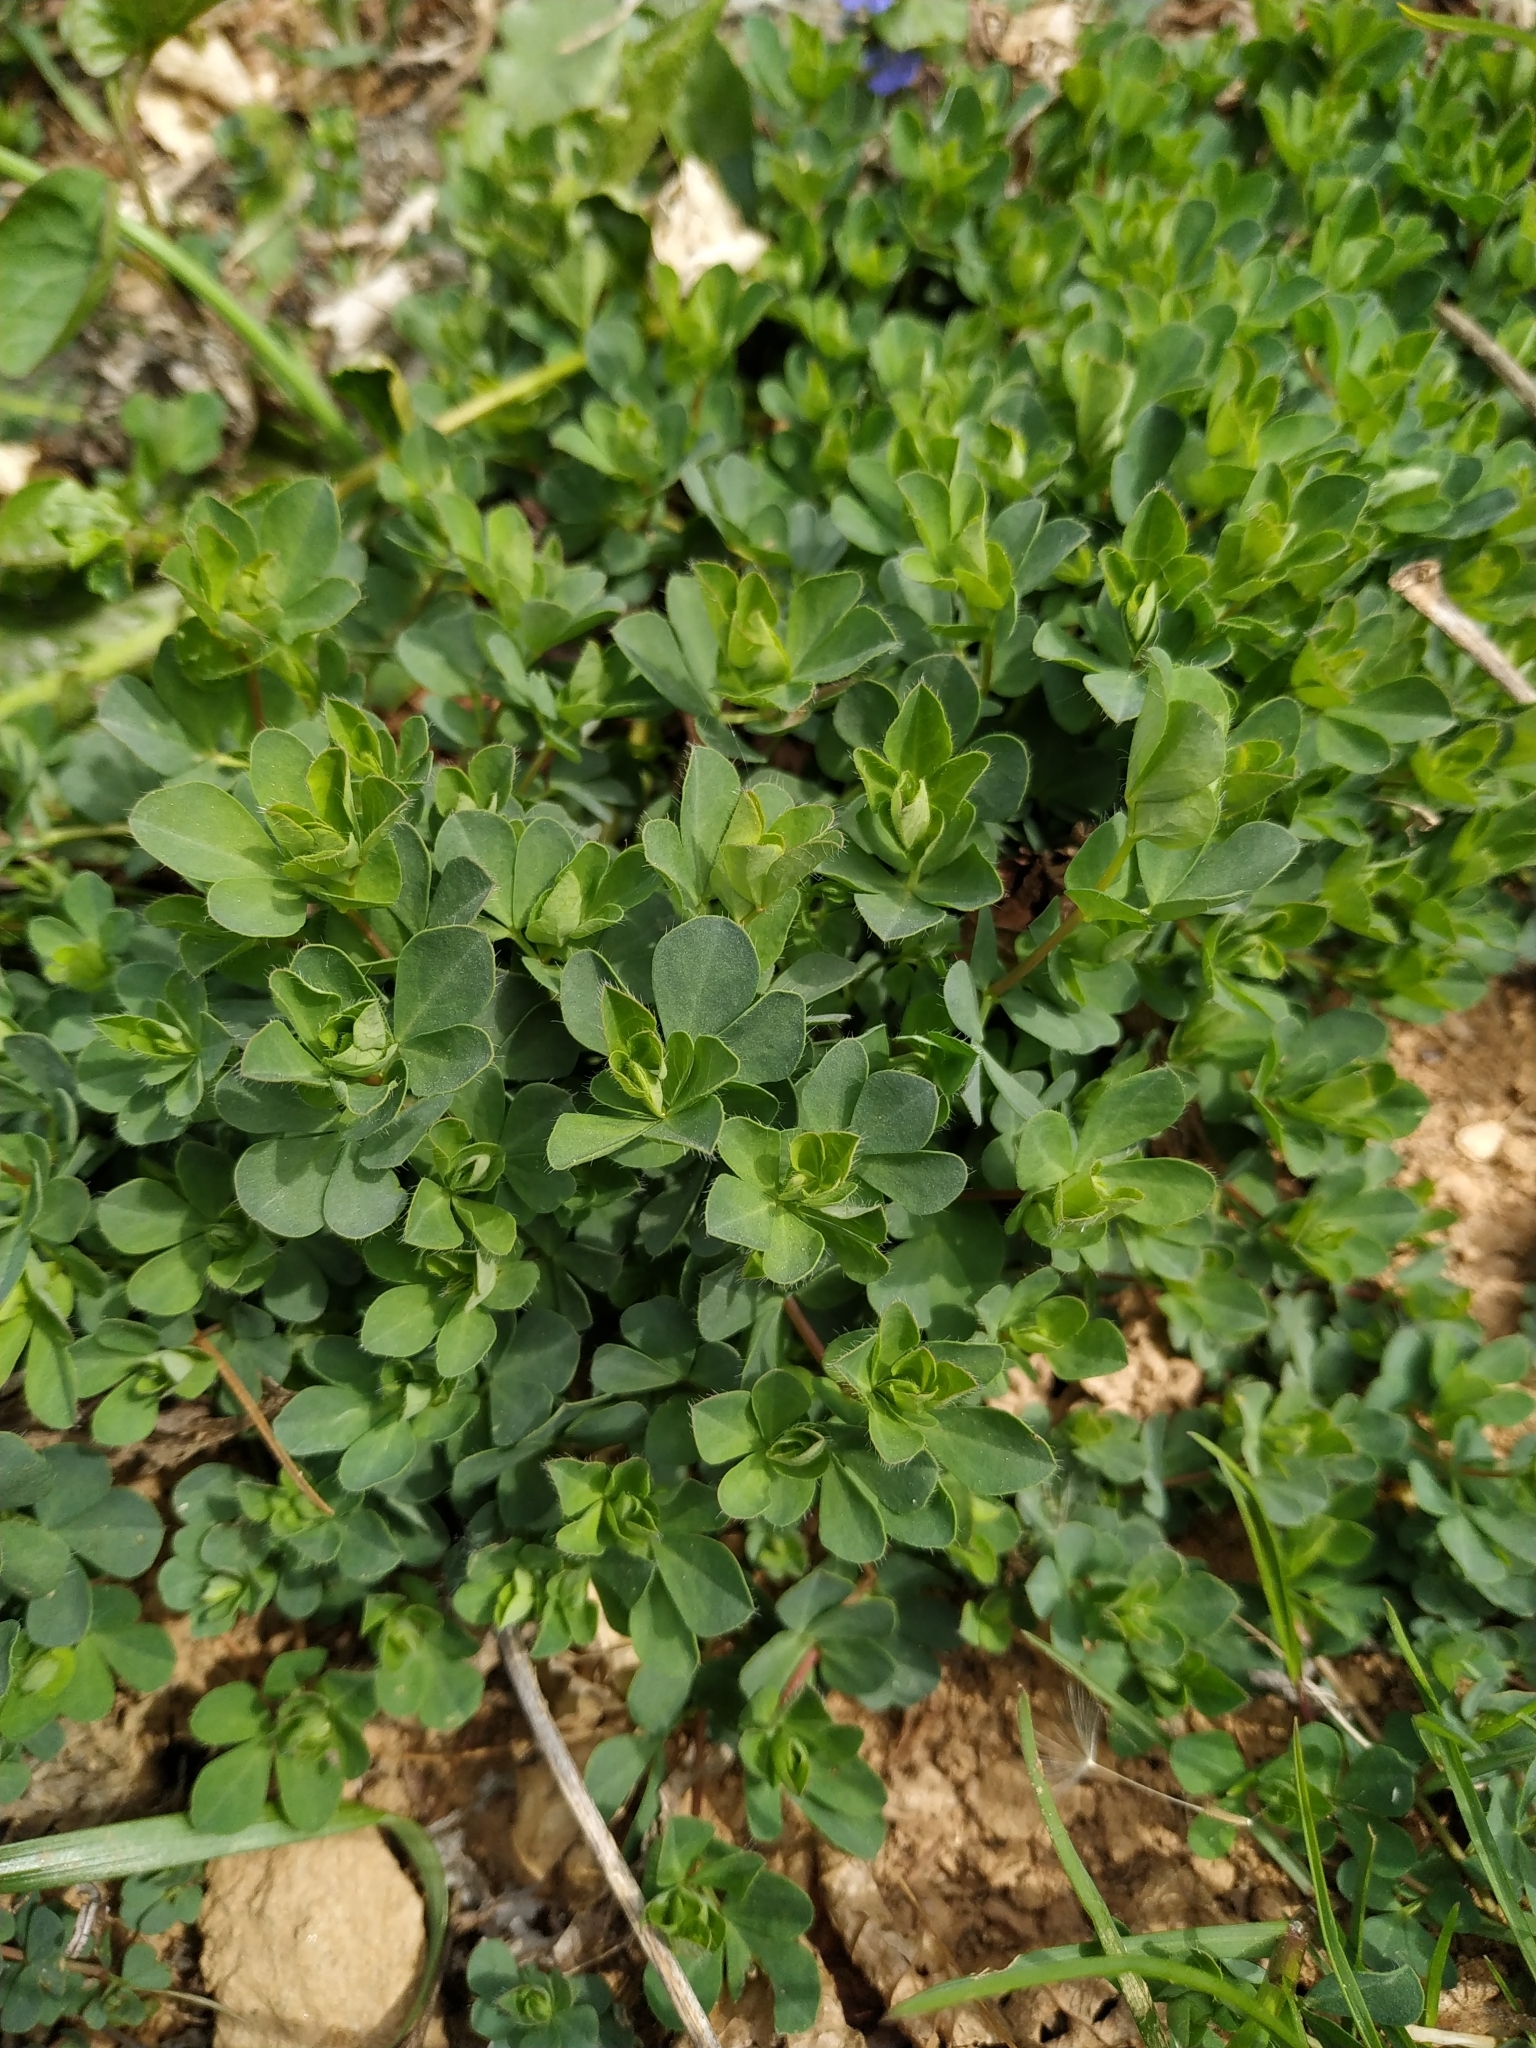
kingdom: Plantae
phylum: Tracheophyta
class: Magnoliopsida
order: Fabales
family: Fabaceae
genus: Lotus
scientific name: Lotus corniculatus
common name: Common bird's-foot-trefoil
